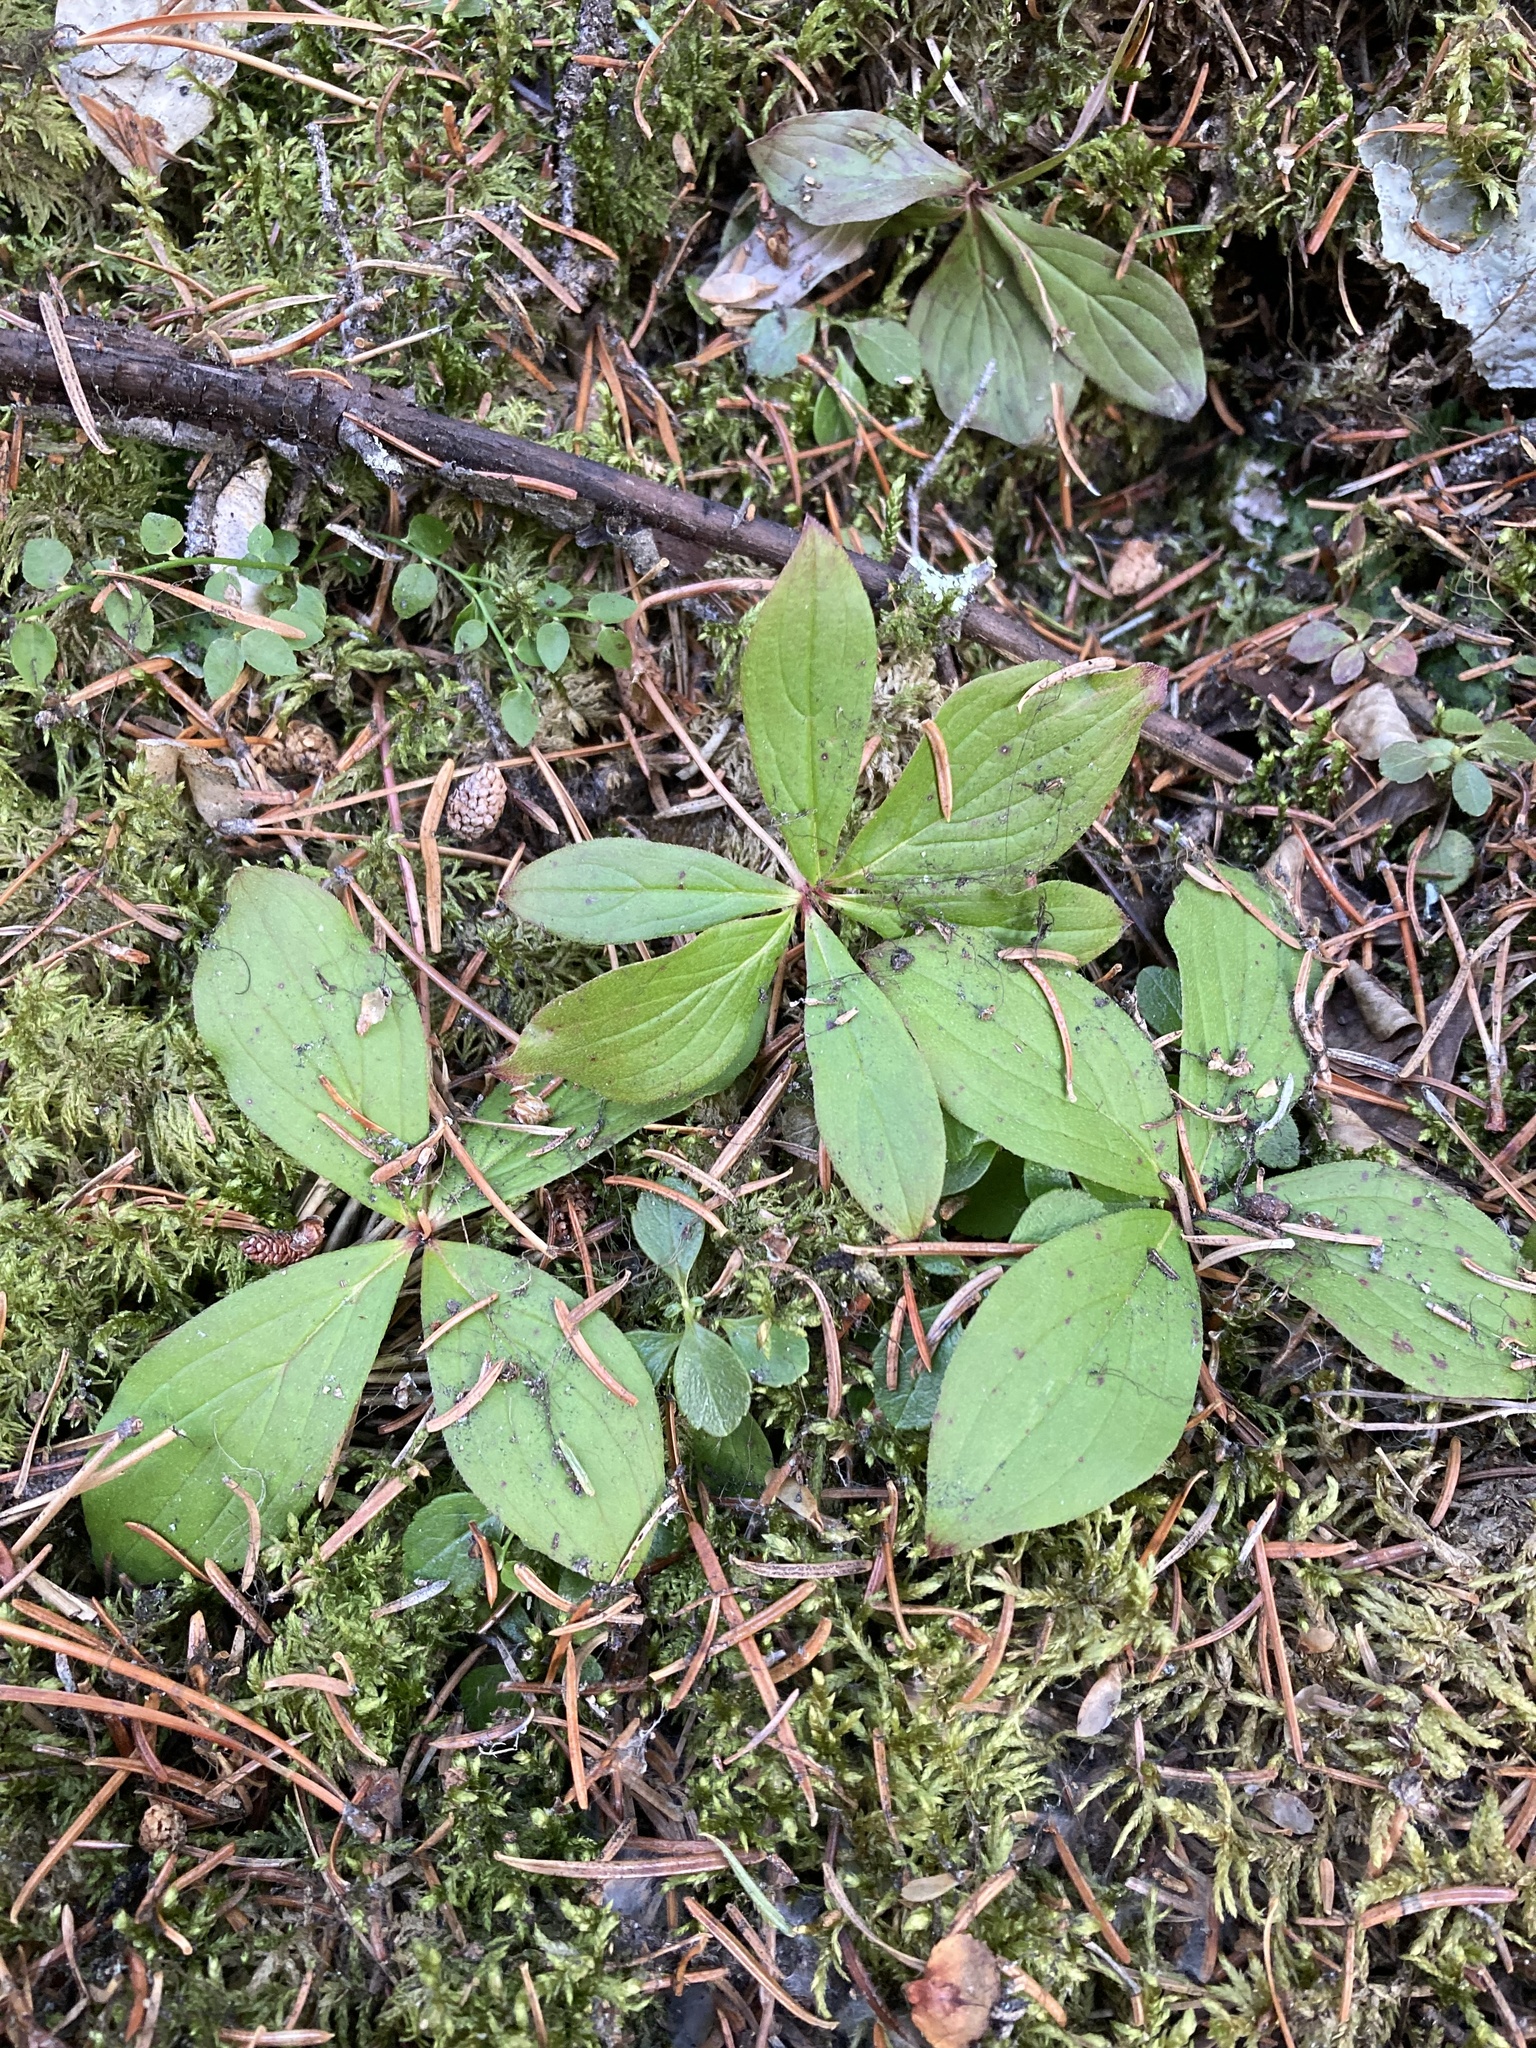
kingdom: Plantae
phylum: Tracheophyta
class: Magnoliopsida
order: Cornales
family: Cornaceae
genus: Cornus
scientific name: Cornus canadensis
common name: Creeping dogwood
